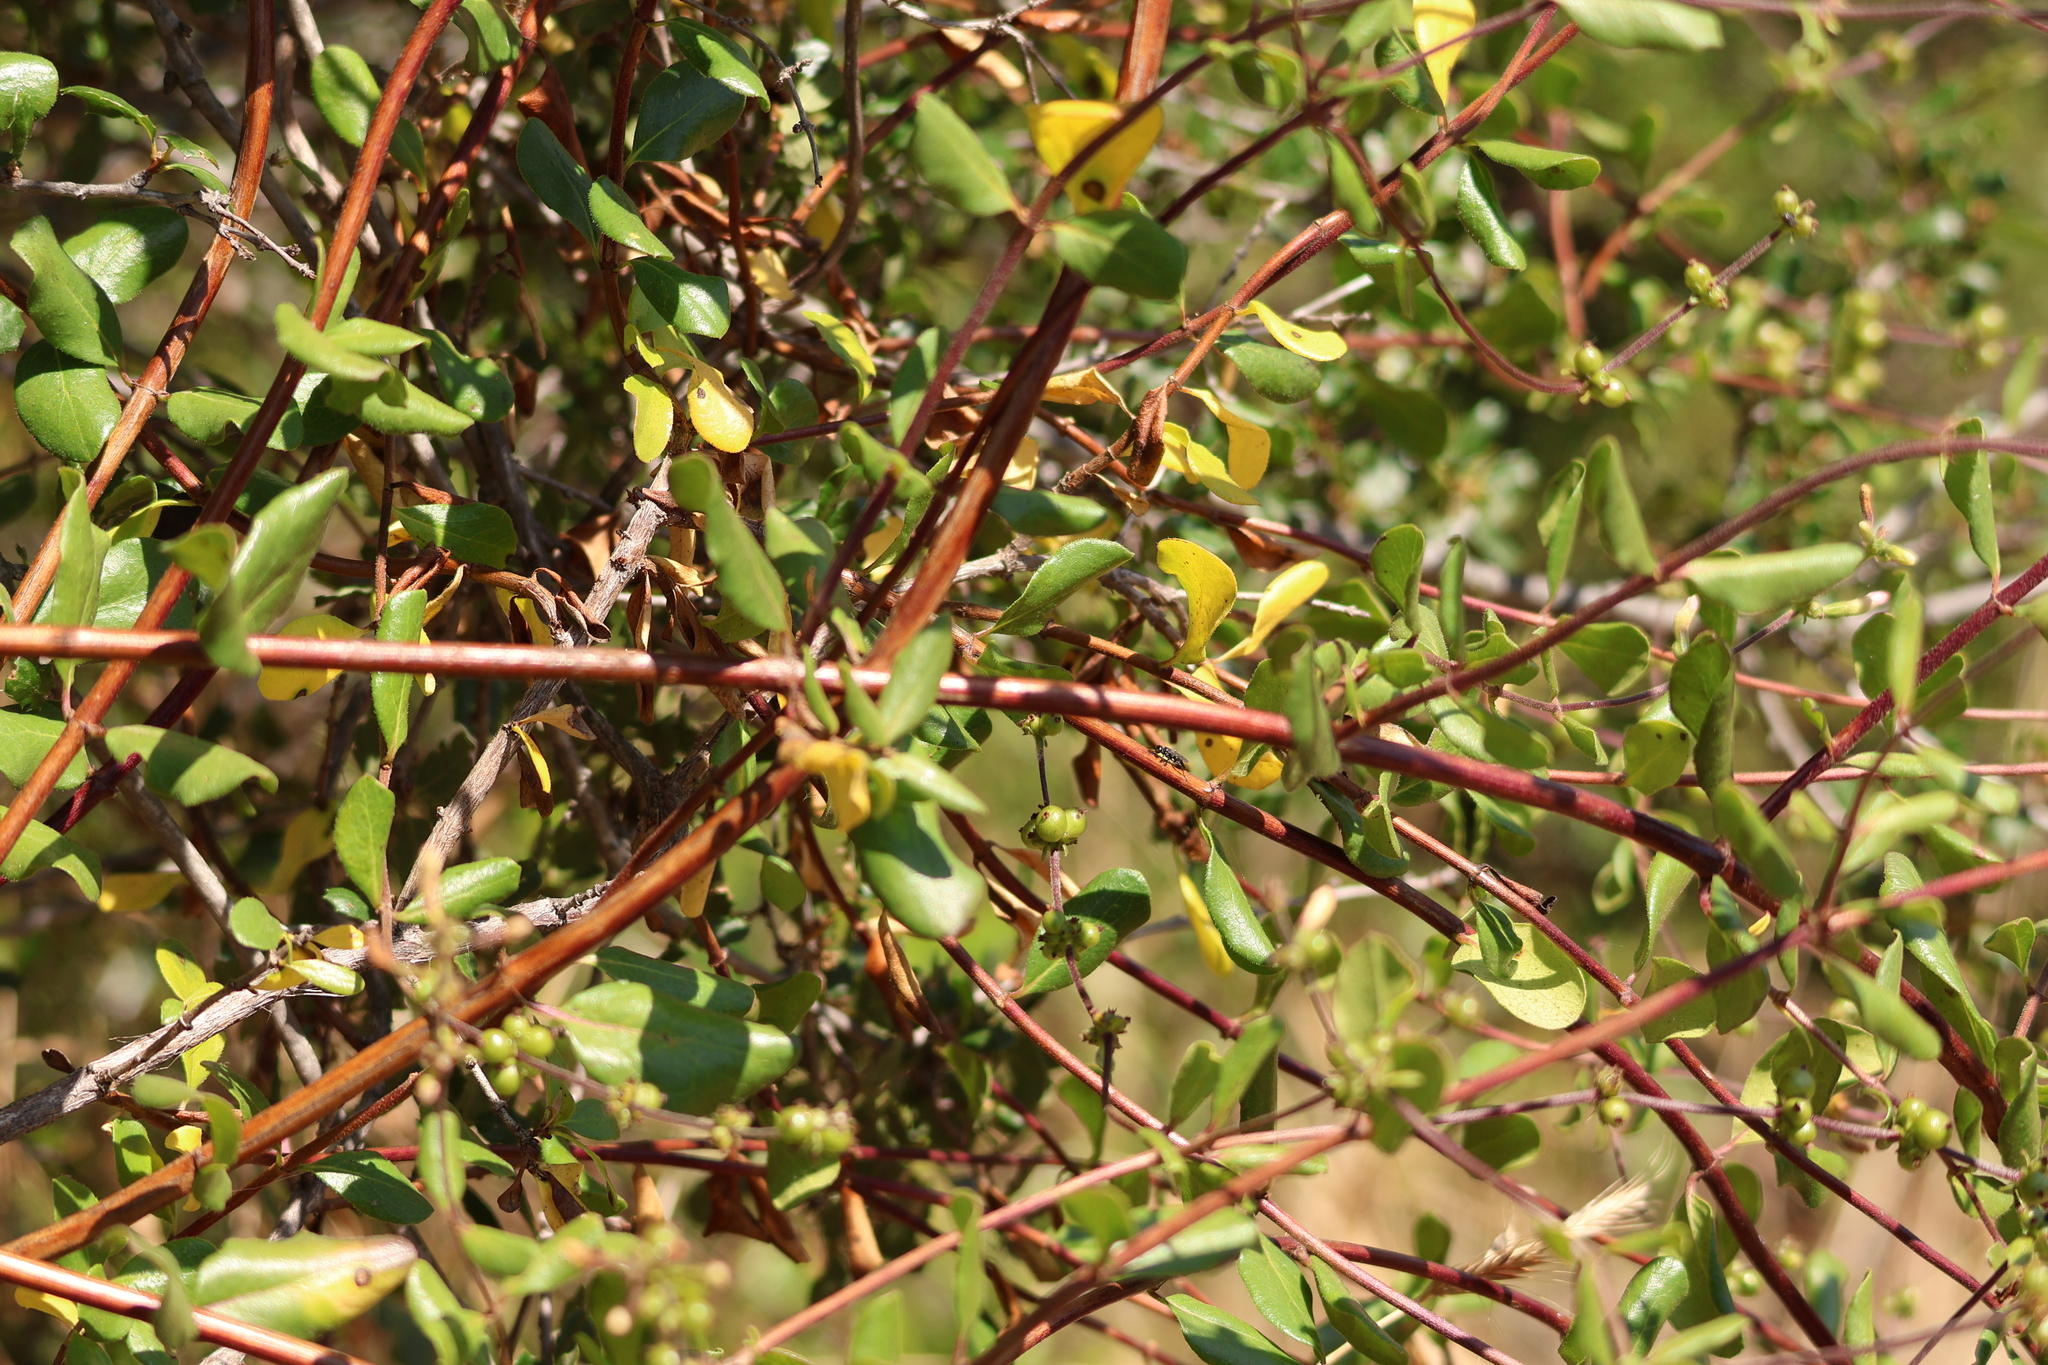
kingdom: Plantae
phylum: Tracheophyta
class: Magnoliopsida
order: Dipsacales
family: Caprifoliaceae
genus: Lonicera
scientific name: Lonicera subspicata
